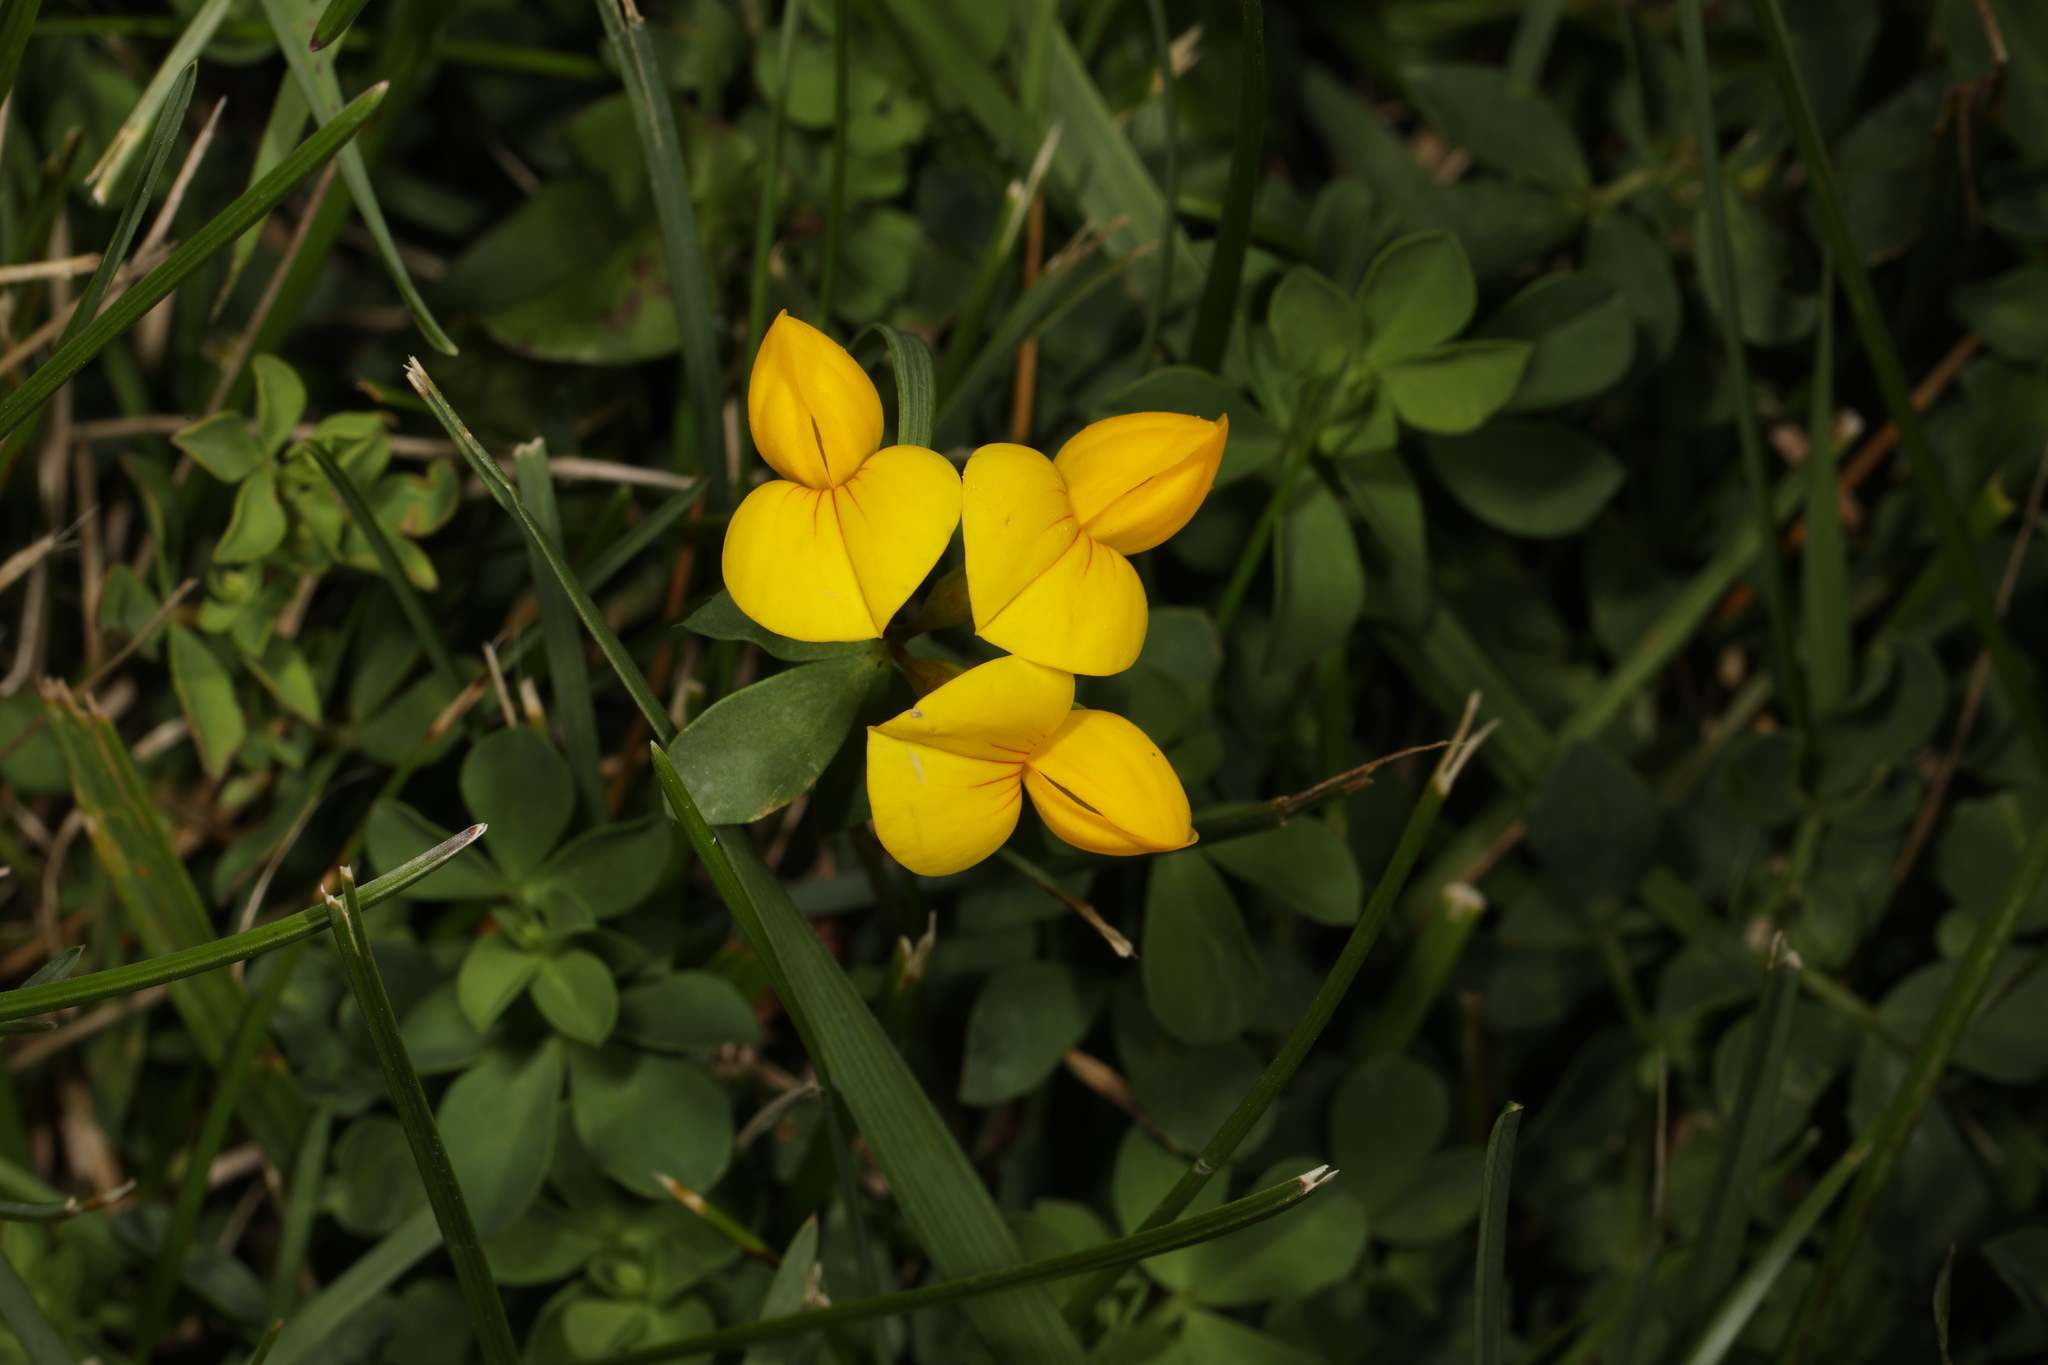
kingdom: Plantae
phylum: Tracheophyta
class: Magnoliopsida
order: Fabales
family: Fabaceae
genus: Lotus
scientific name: Lotus corniculatus
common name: Common bird's-foot-trefoil
